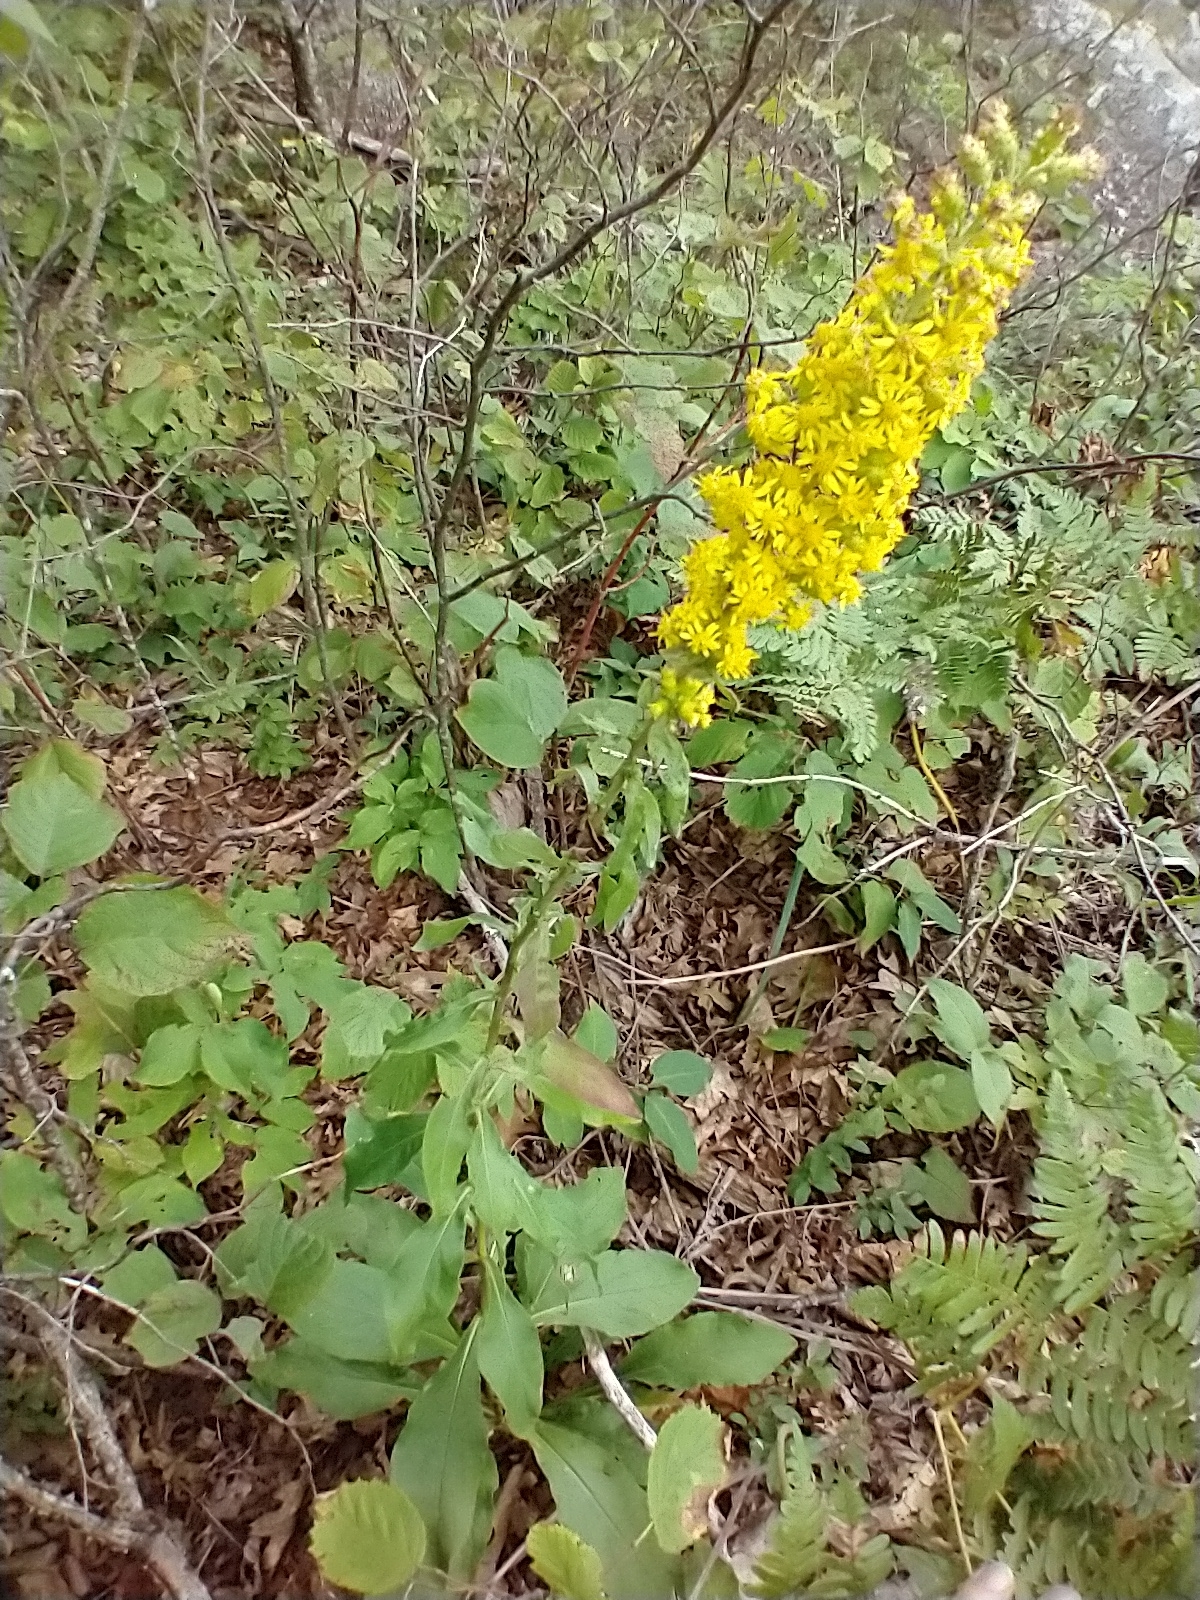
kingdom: Plantae
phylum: Tracheophyta
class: Magnoliopsida
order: Asterales
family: Asteraceae
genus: Solidago
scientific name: Solidago squarrosa
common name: Stout goldenrod
